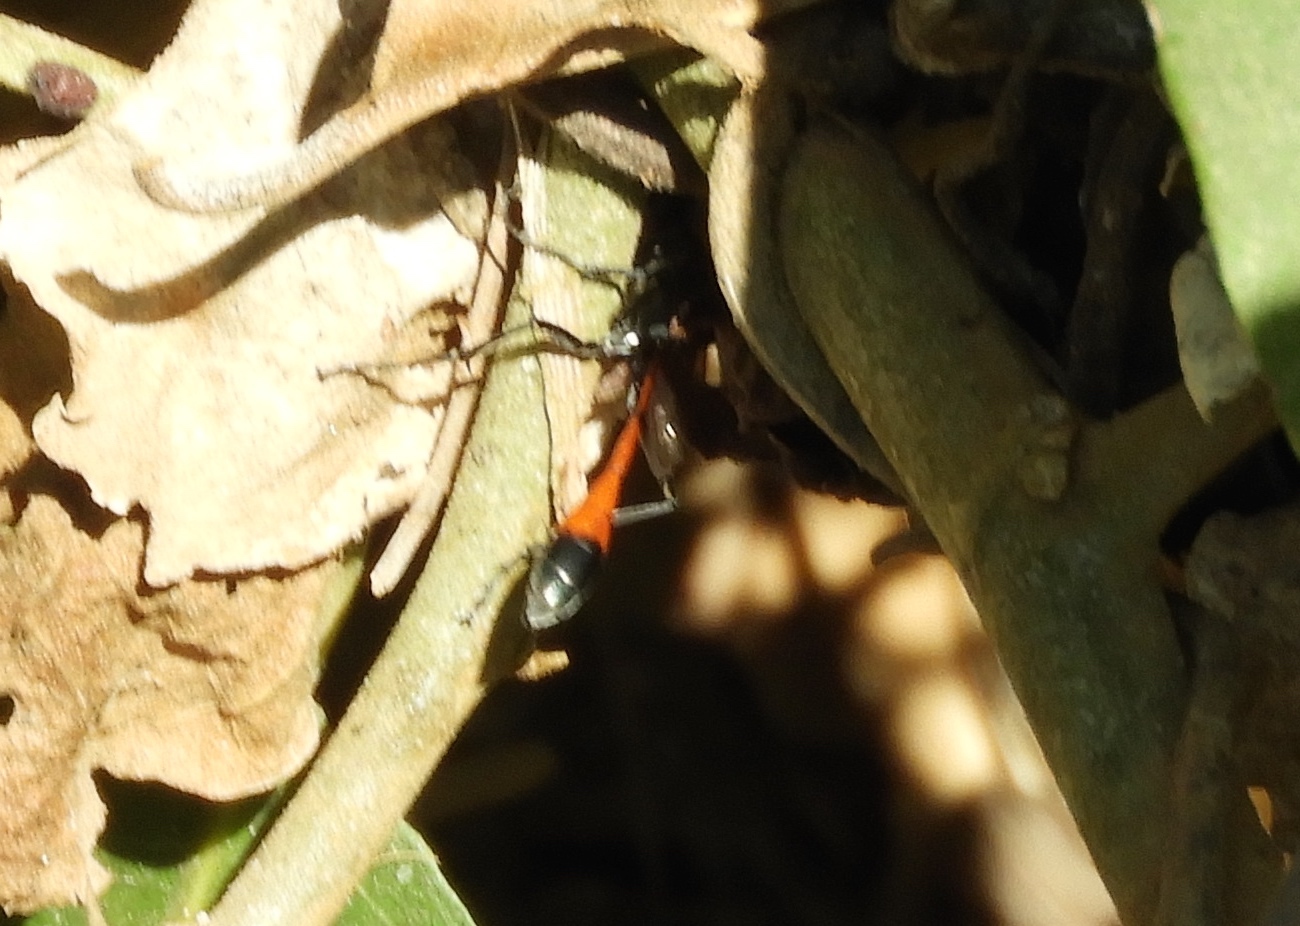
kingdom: Animalia
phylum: Arthropoda
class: Insecta
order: Hymenoptera
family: Sphecidae
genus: Ammophila
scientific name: Ammophila
